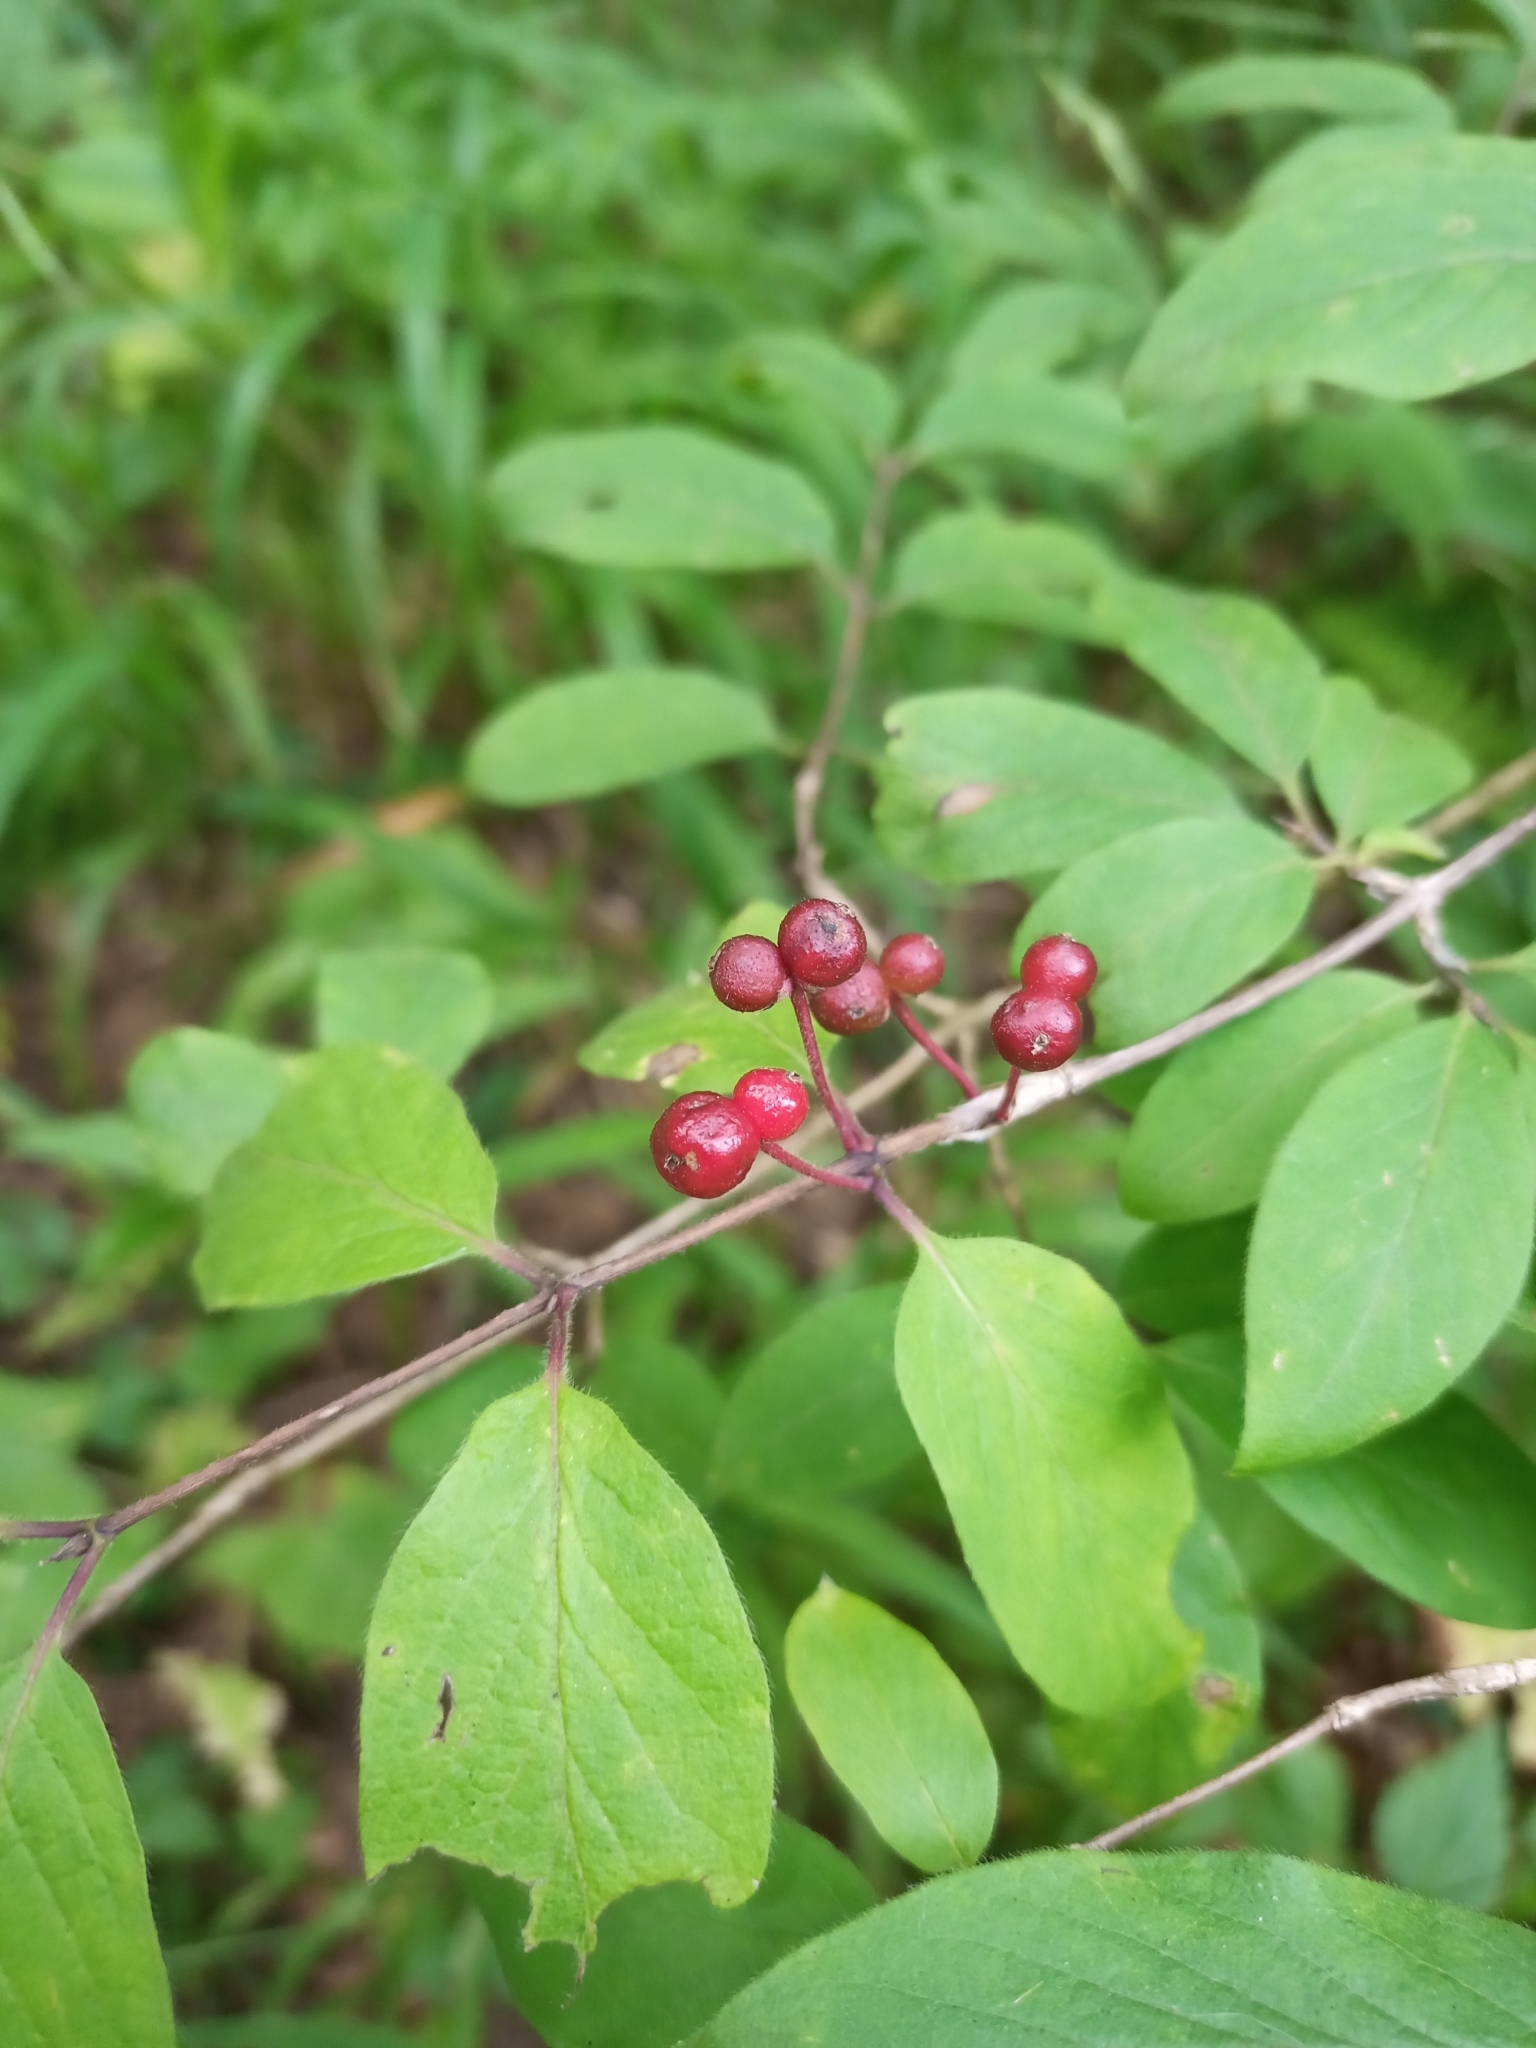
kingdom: Plantae
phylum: Tracheophyta
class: Magnoliopsida
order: Dipsacales
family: Caprifoliaceae
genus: Lonicera
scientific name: Lonicera xylosteum
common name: Fly honeysuckle
